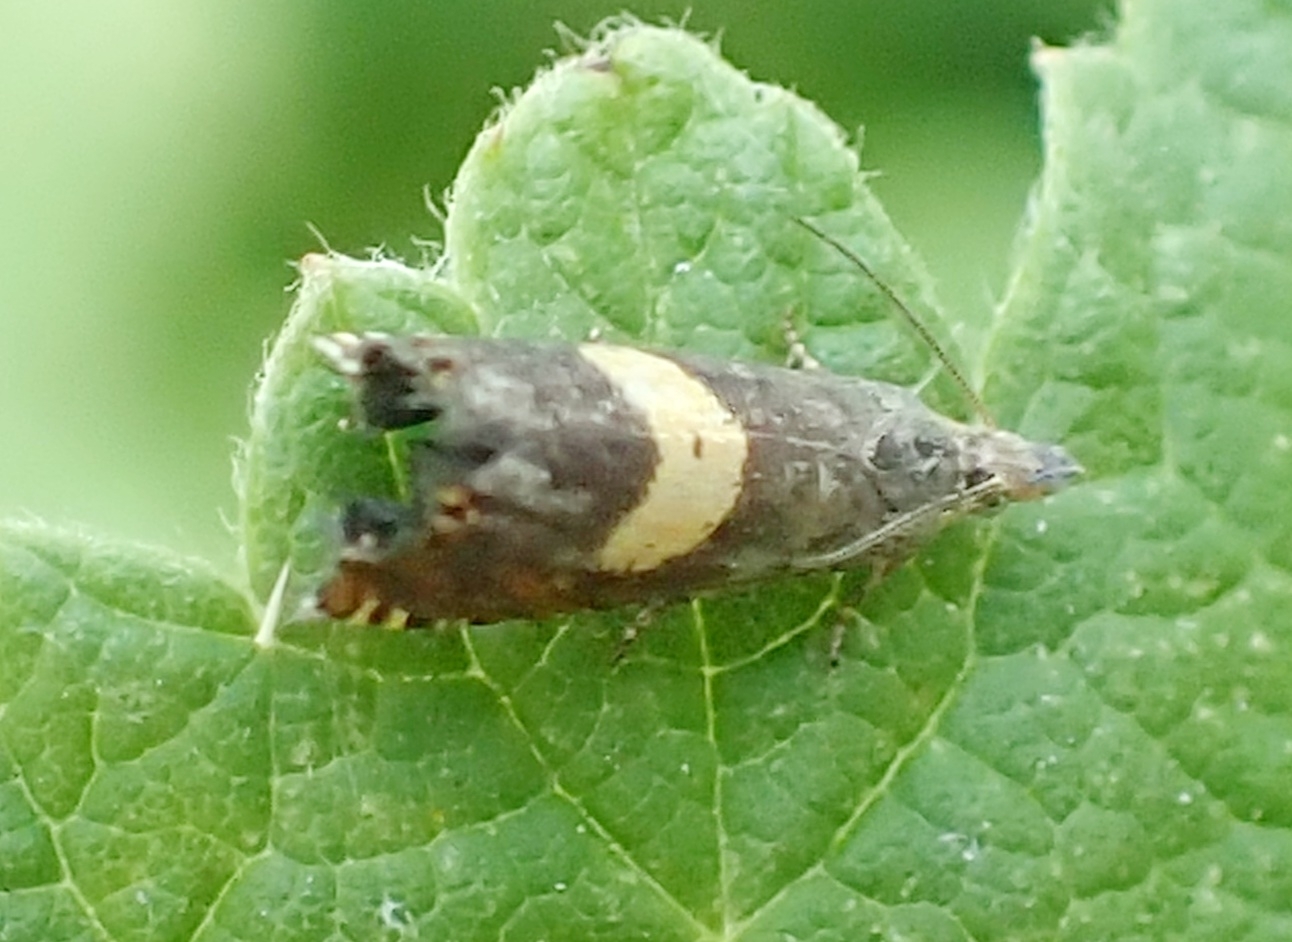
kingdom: Animalia
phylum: Arthropoda
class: Insecta
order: Lepidoptera
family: Tortricidae
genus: Grapholita
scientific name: Grapholita orobana
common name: Crescent piercer
